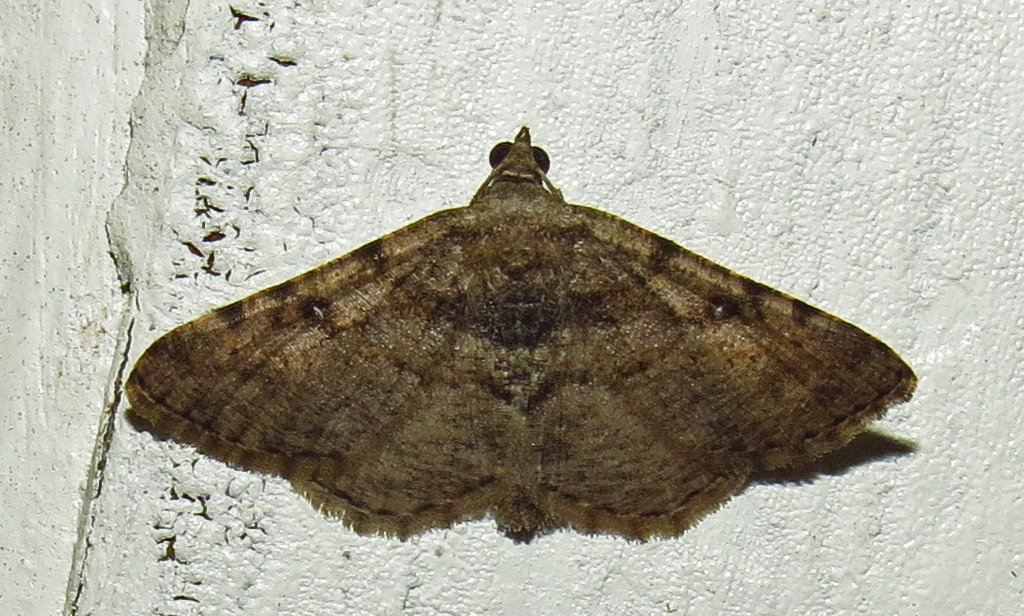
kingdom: Animalia
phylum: Arthropoda
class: Insecta
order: Lepidoptera
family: Geometridae
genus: Digrammia
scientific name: Digrammia gnophosaria
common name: Hollow-spotted angle
